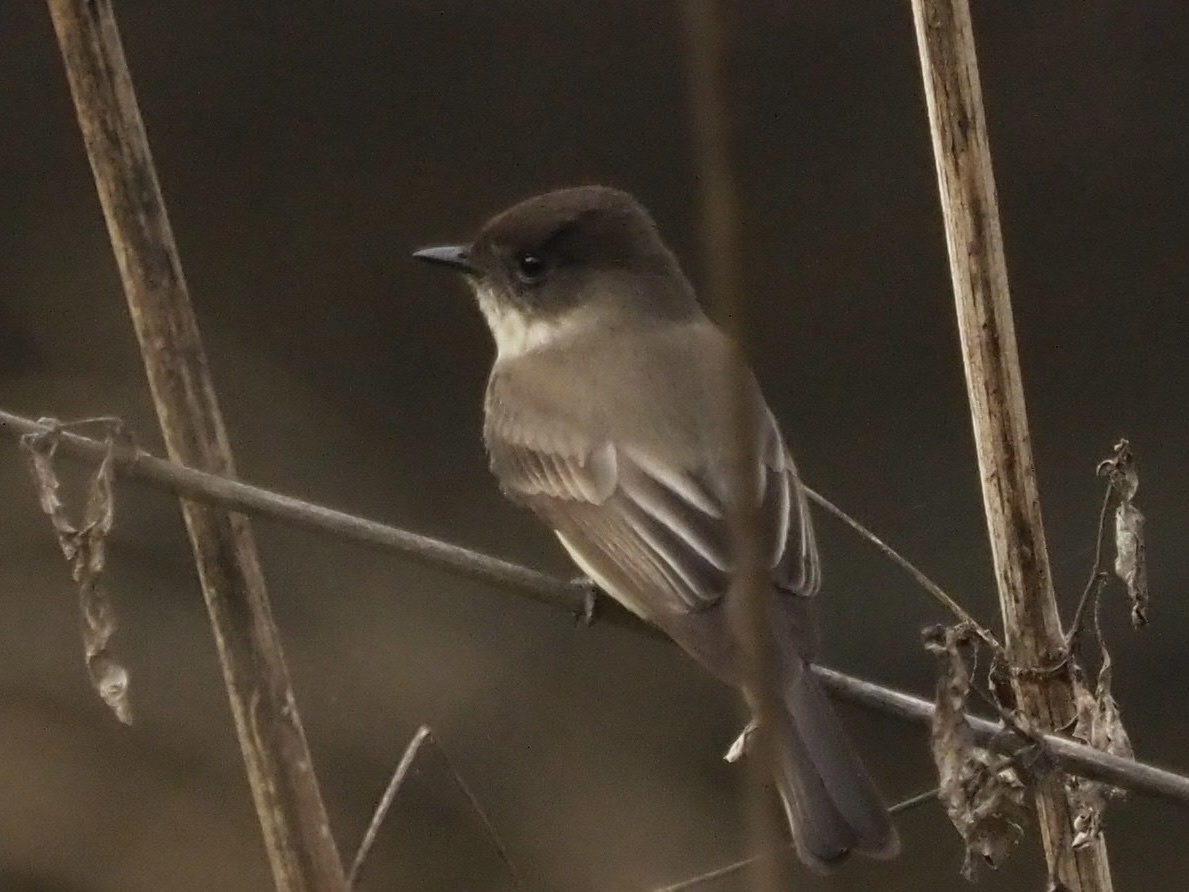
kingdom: Animalia
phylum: Chordata
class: Aves
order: Passeriformes
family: Tyrannidae
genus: Sayornis
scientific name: Sayornis phoebe
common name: Eastern phoebe
